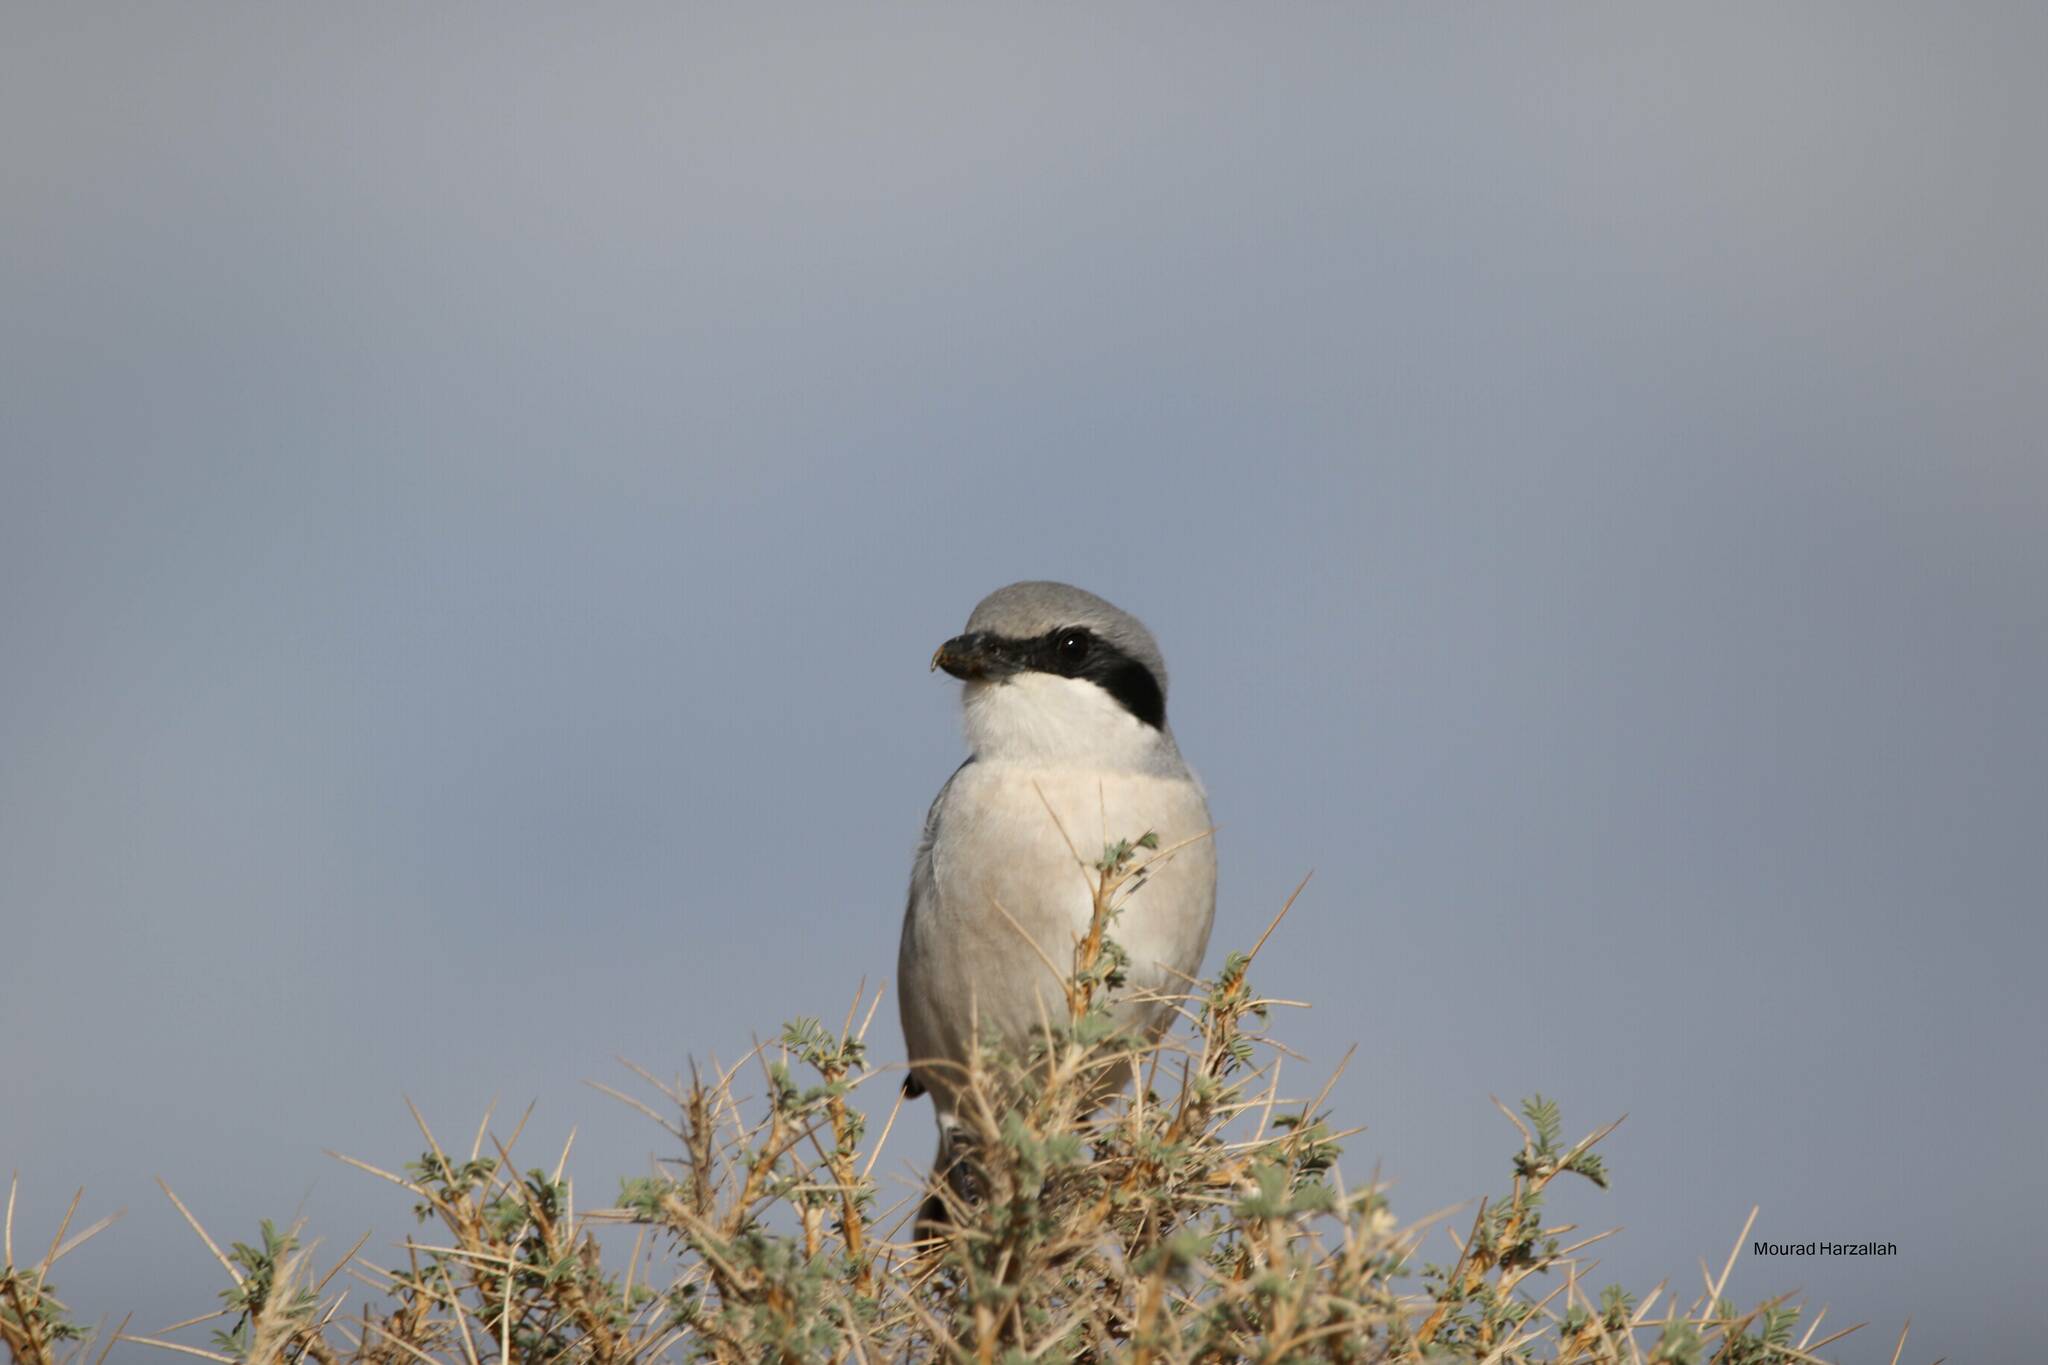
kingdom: Animalia
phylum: Chordata
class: Aves
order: Passeriformes
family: Laniidae
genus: Lanius
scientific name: Lanius excubitor
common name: Great grey shrike
